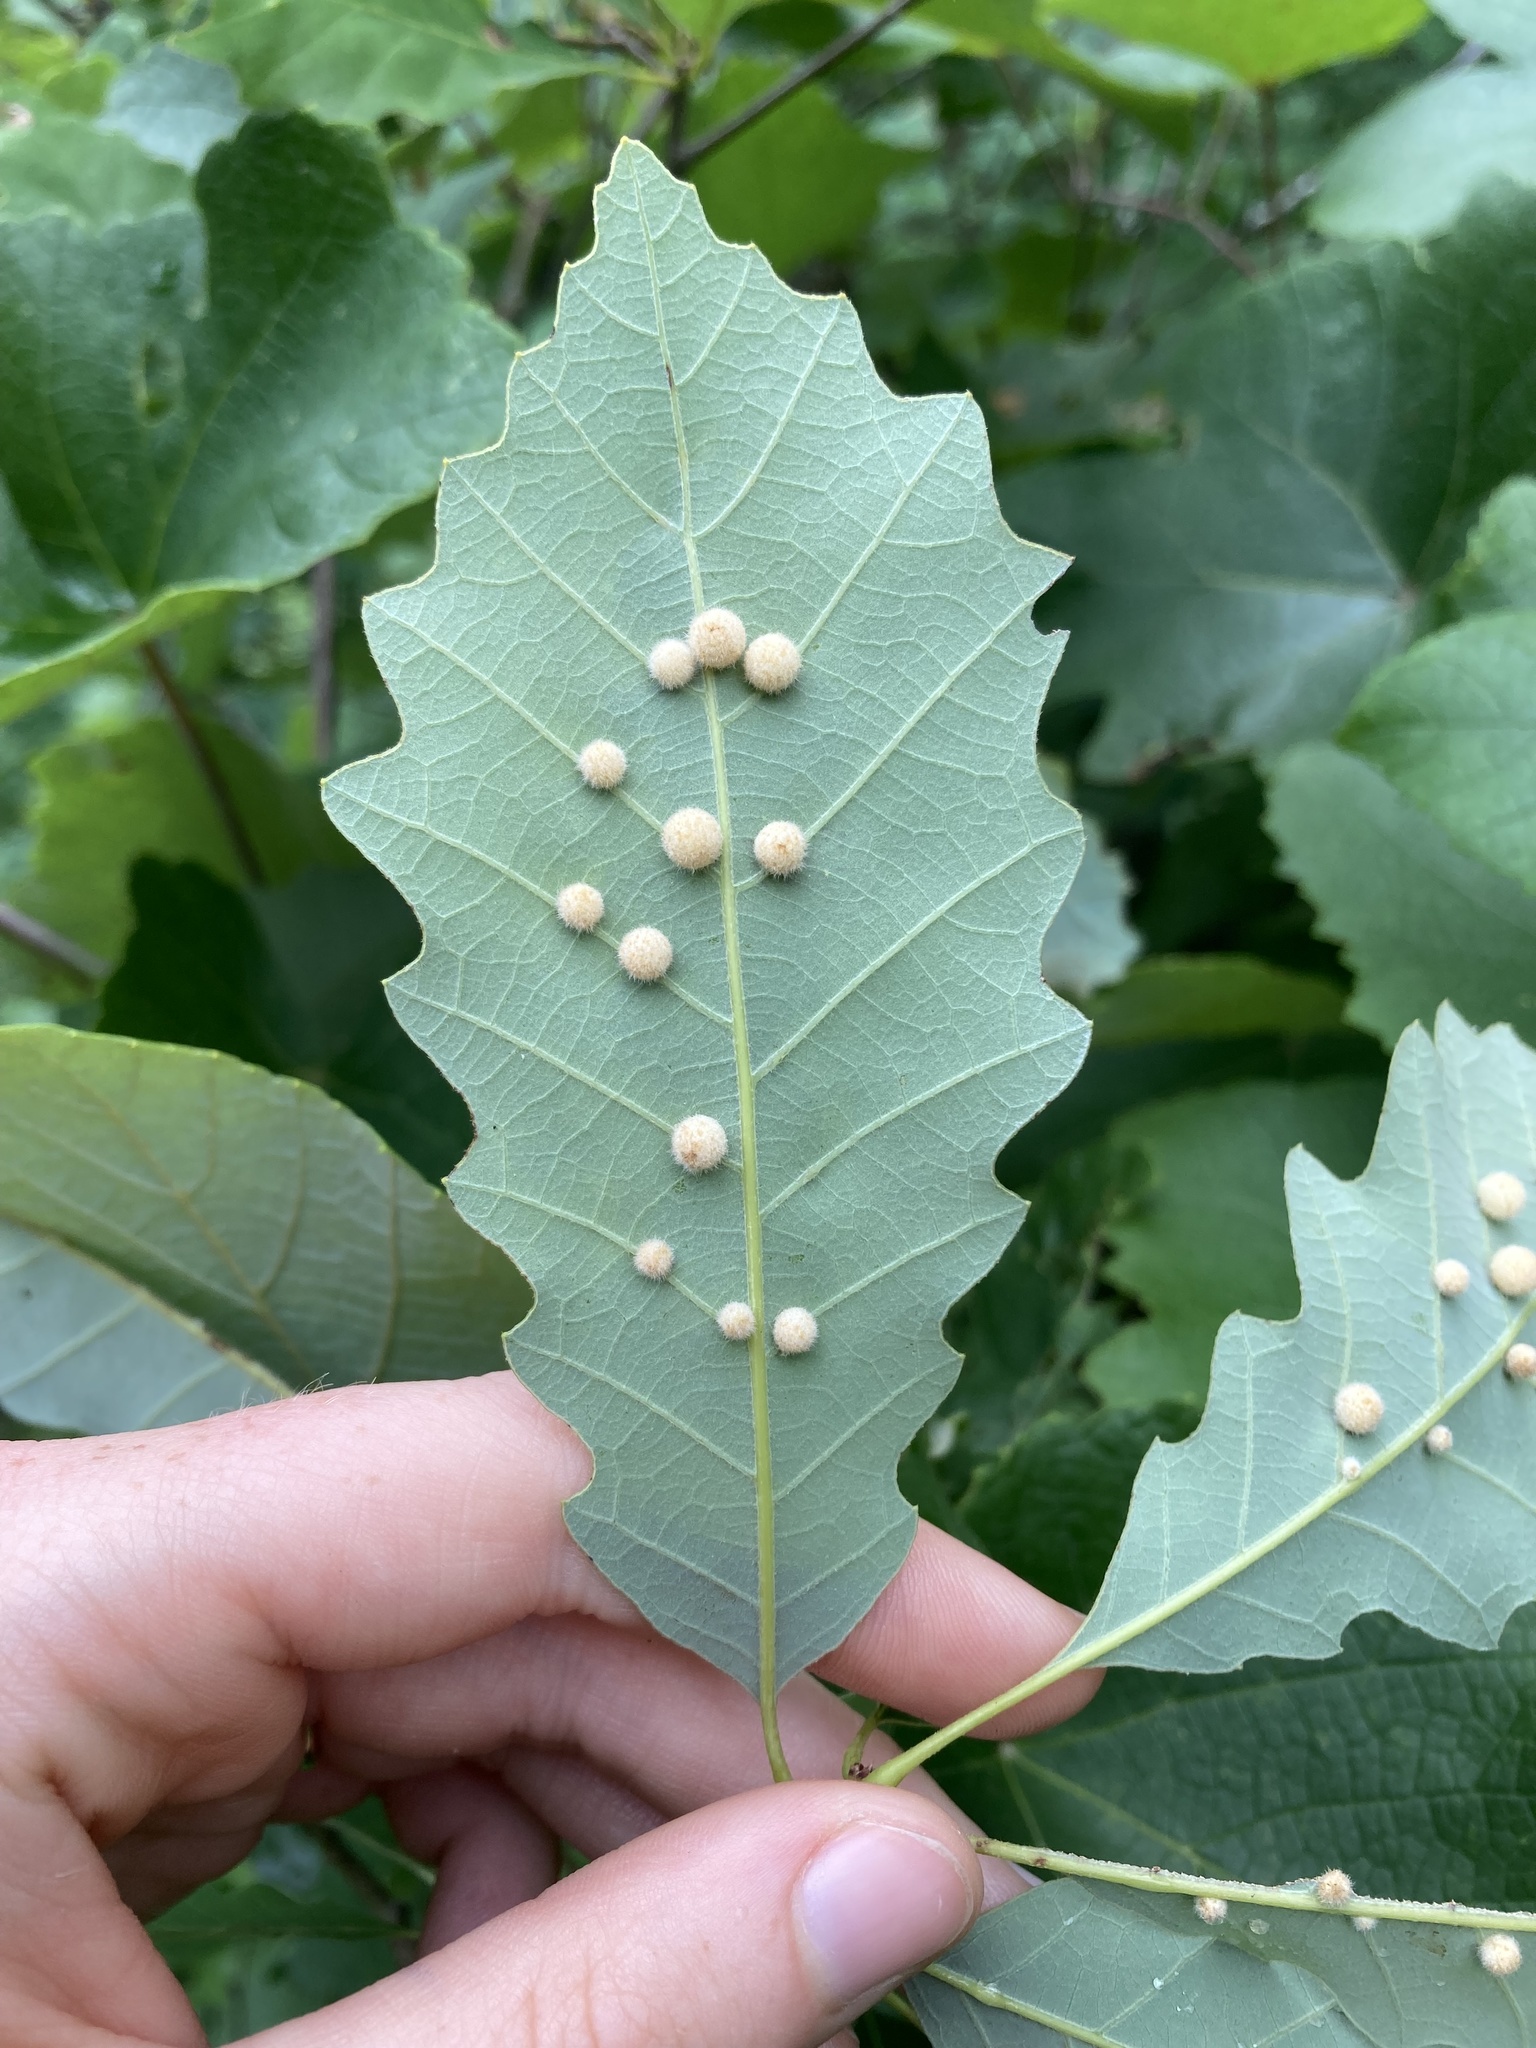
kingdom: Animalia
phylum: Arthropoda
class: Insecta
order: Hymenoptera
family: Cynipidae
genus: Philonix
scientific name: Philonix fulvicollis
